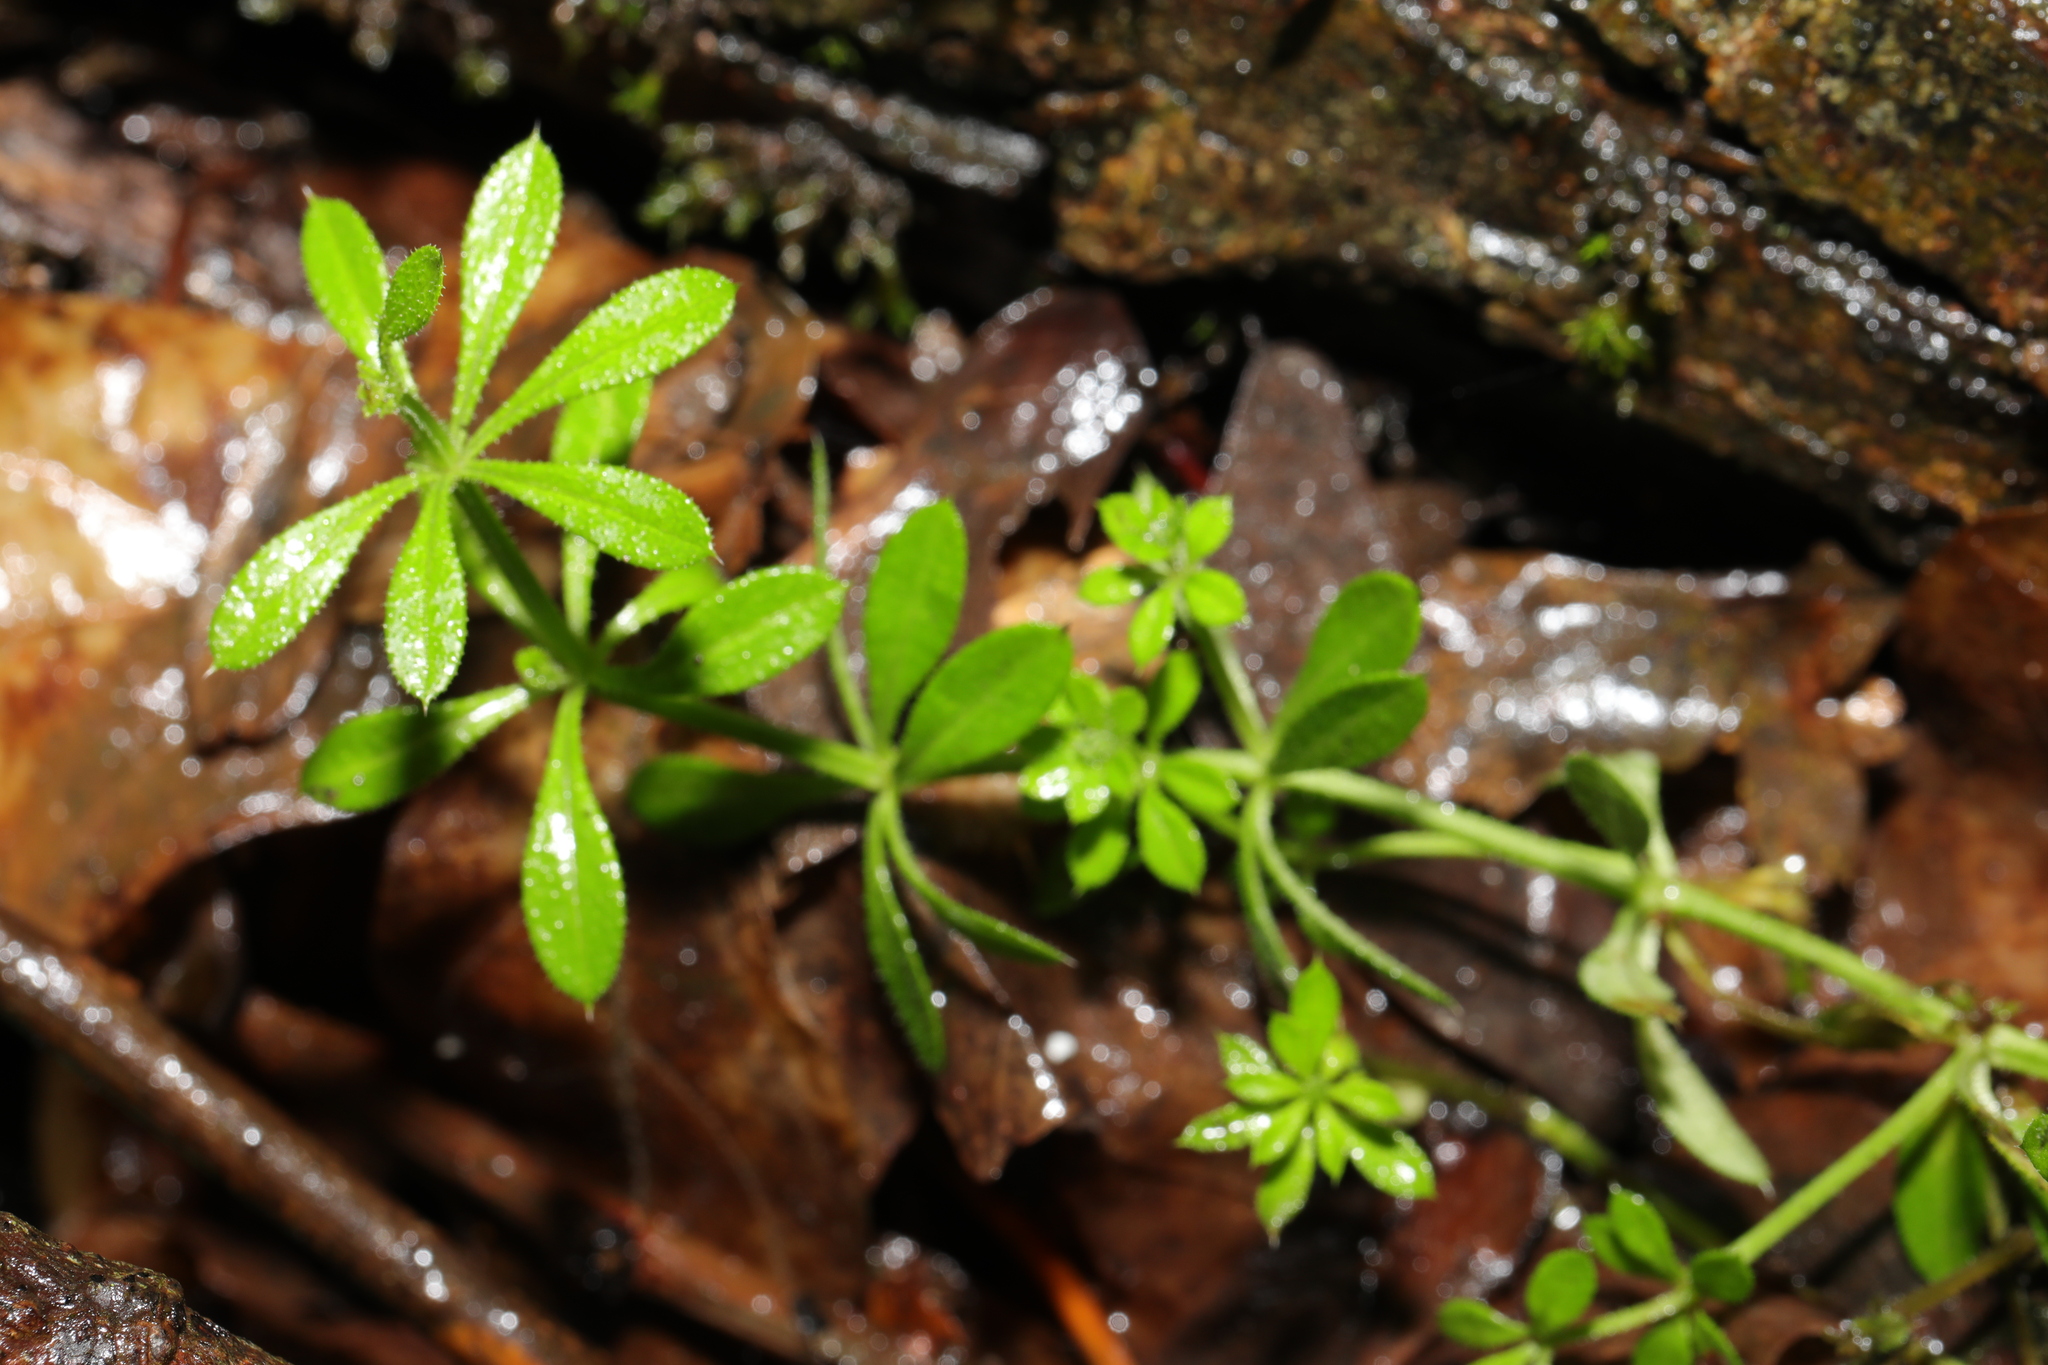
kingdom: Plantae
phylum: Tracheophyta
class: Magnoliopsida
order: Gentianales
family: Rubiaceae
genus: Galium
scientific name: Galium aparine
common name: Cleavers
